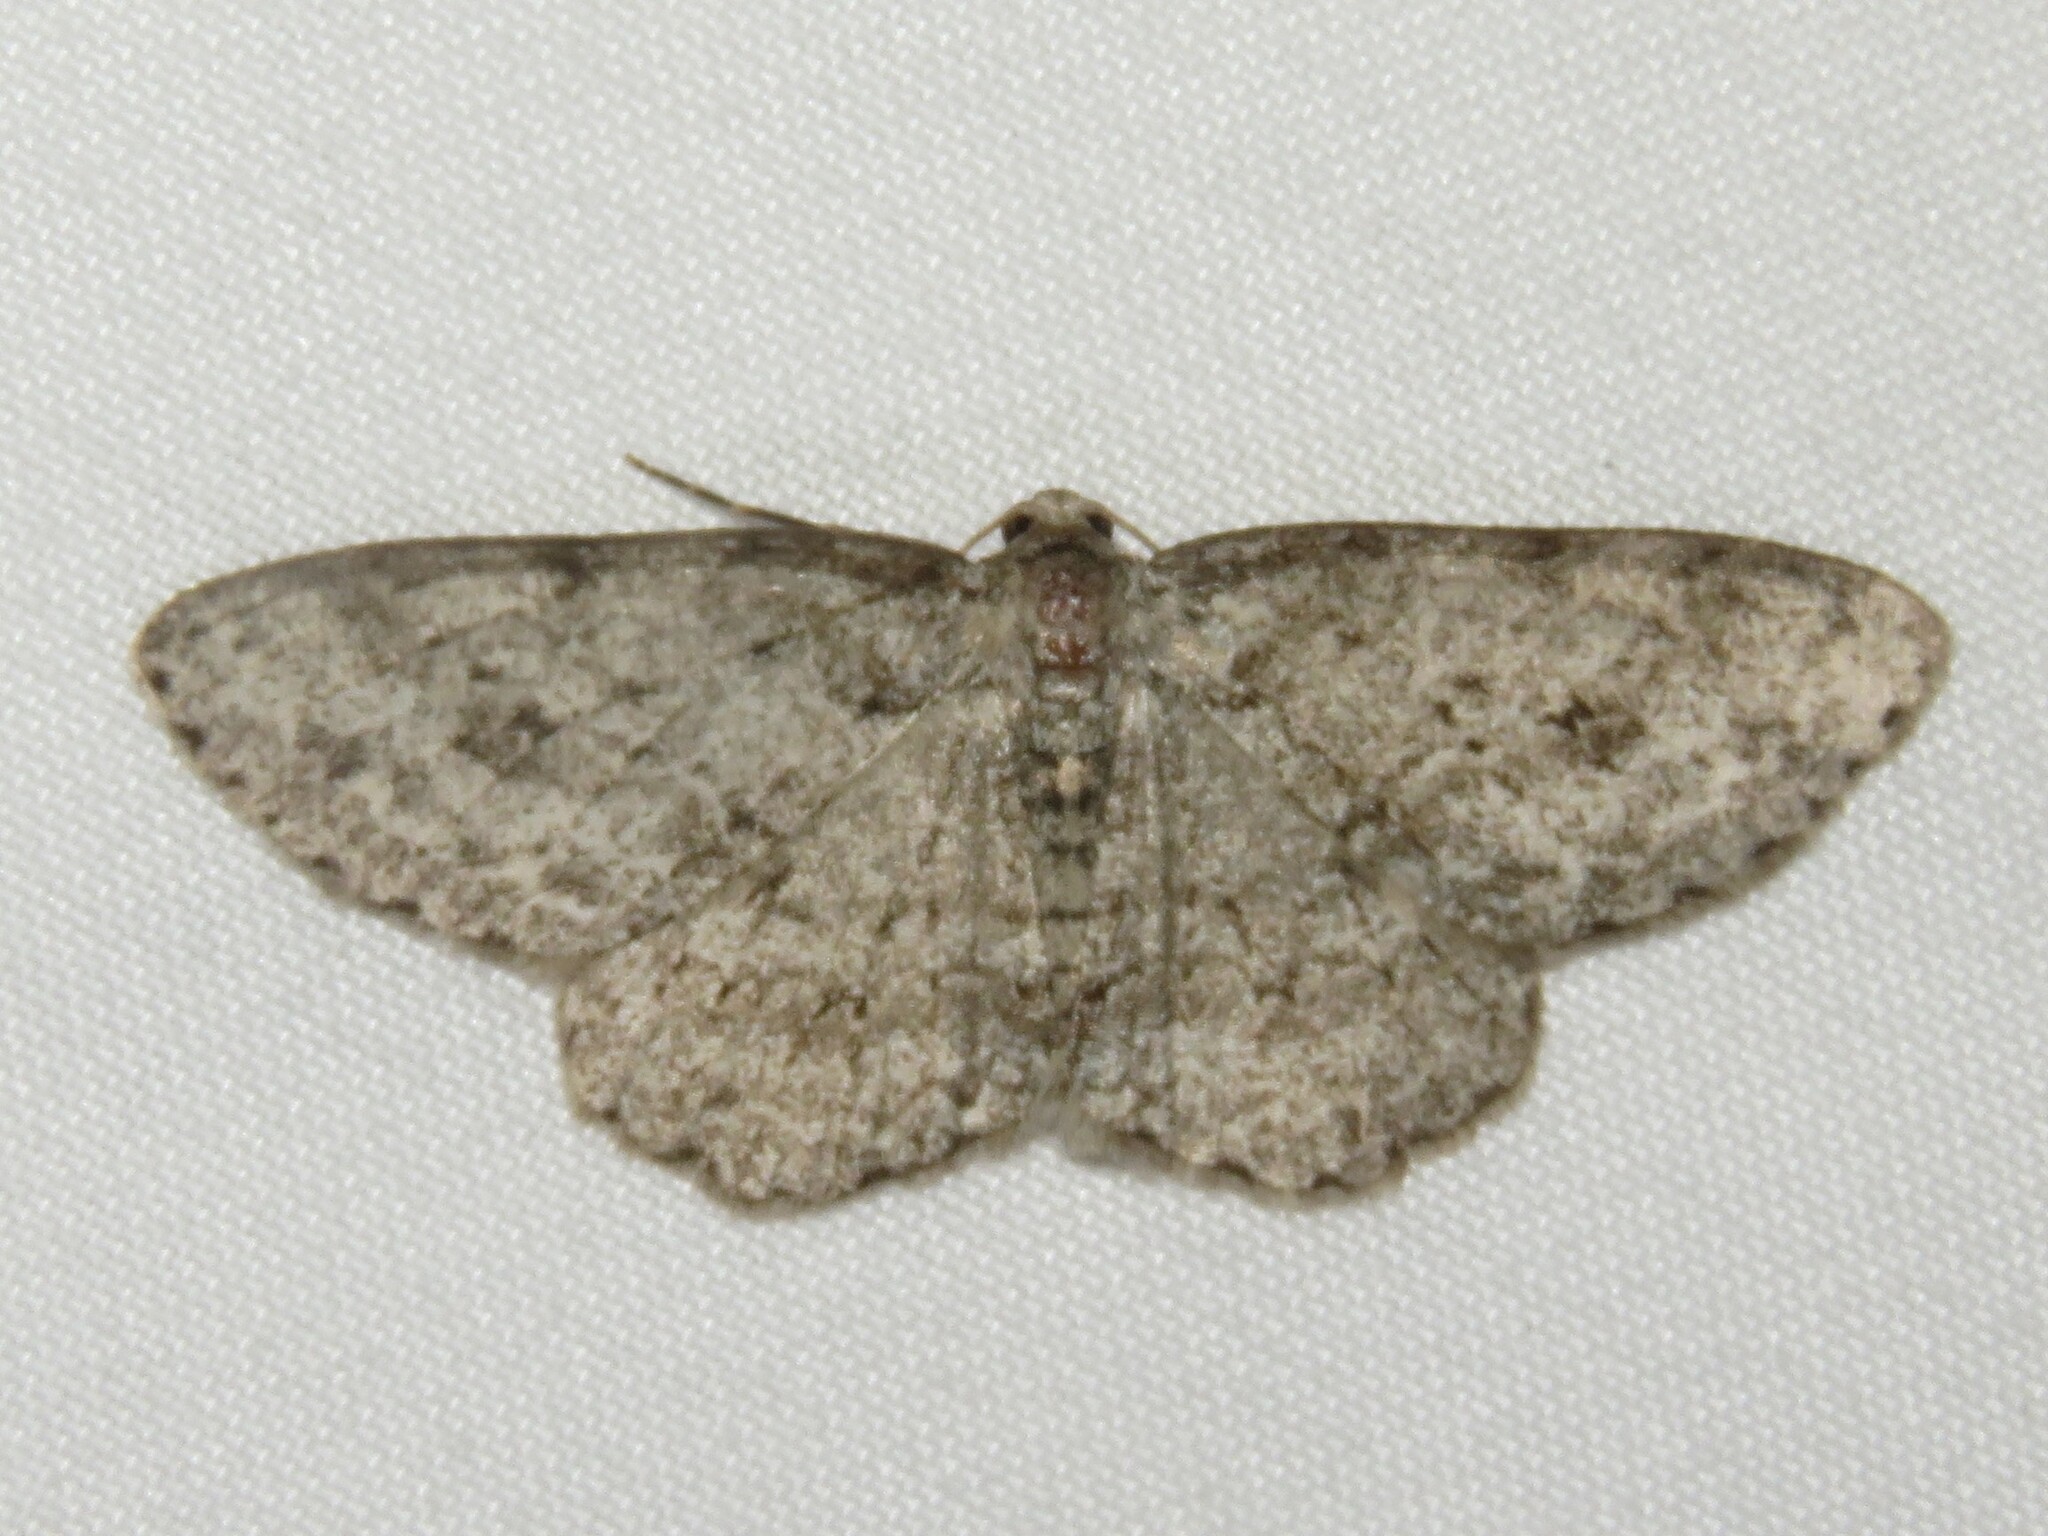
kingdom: Animalia
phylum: Arthropoda
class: Insecta
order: Lepidoptera
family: Geometridae
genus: Ectropis
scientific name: Ectropis crepuscularia
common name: Engrailed
